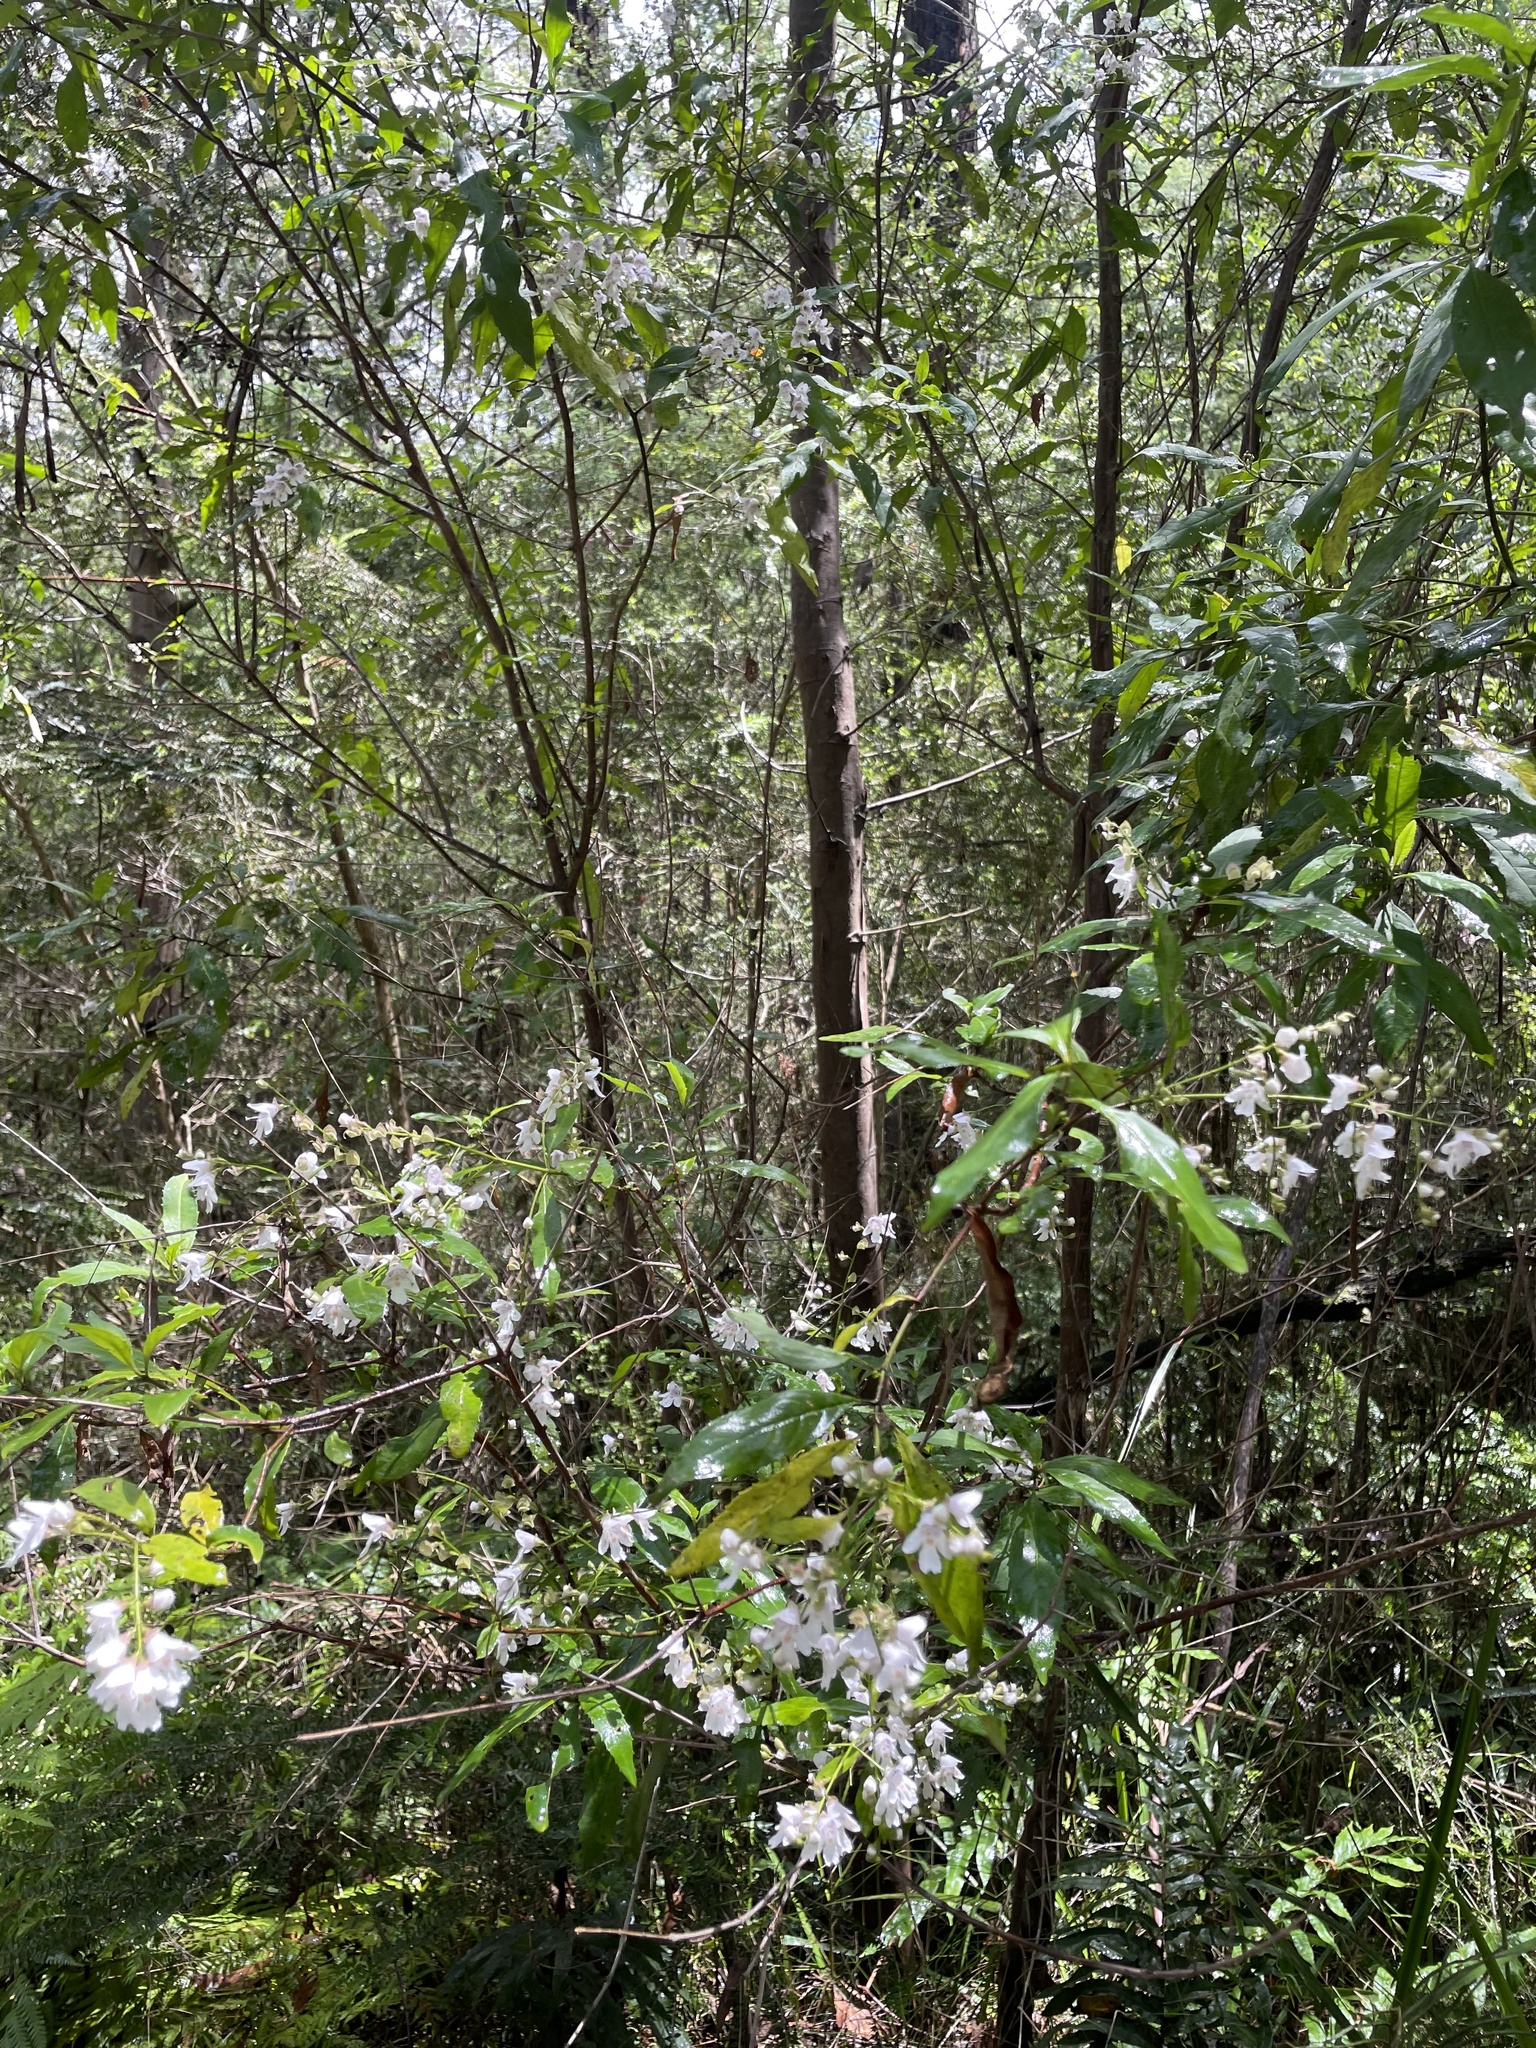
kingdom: Plantae
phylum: Tracheophyta
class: Magnoliopsida
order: Lamiales
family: Lamiaceae
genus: Prostanthera
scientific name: Prostanthera lasianthos
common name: Mountain-lilac
